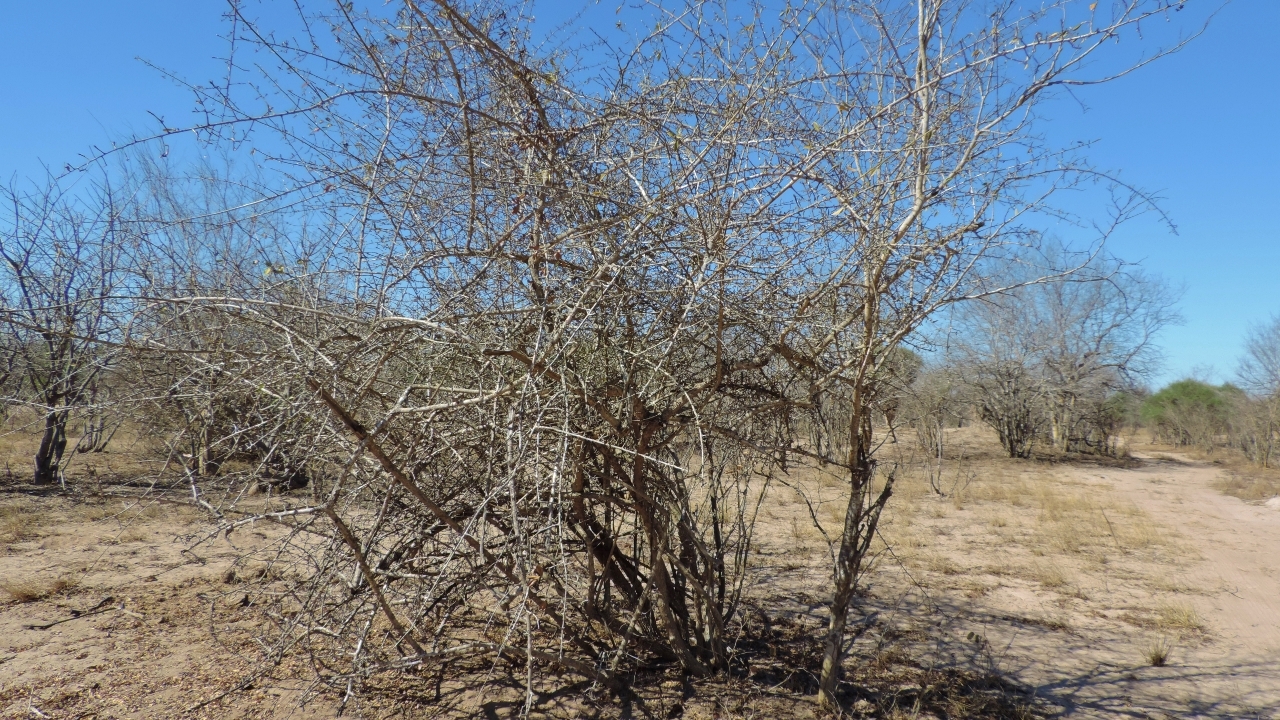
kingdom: Plantae
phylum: Tracheophyta
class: Magnoliopsida
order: Malpighiales
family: Linaceae
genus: Hugonia
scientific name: Hugonia orientalis
